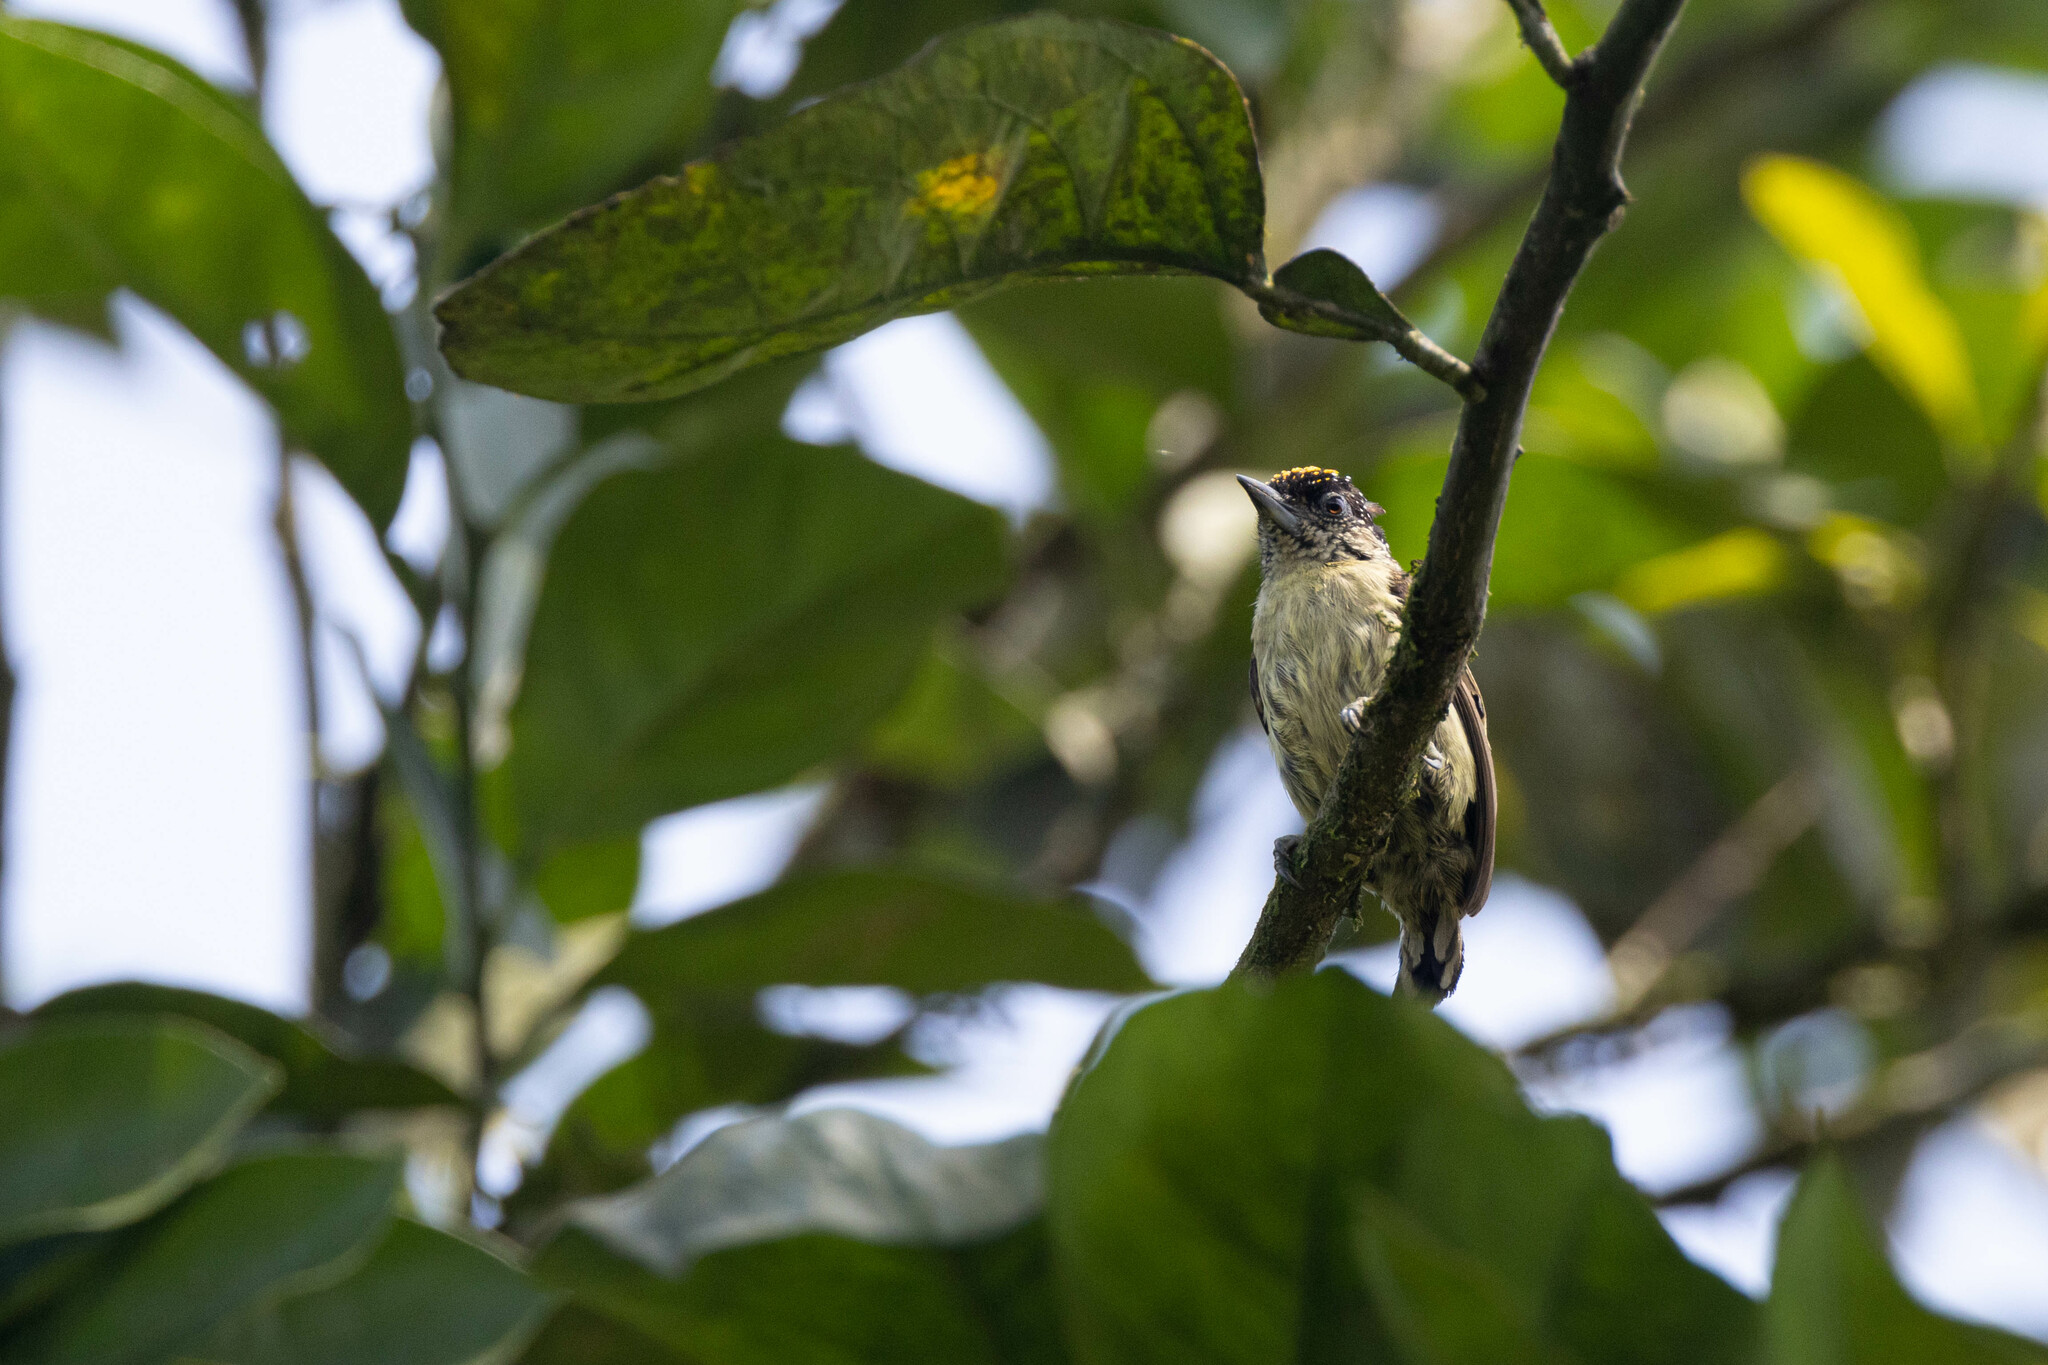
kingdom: Animalia
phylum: Chordata
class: Aves
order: Piciformes
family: Picidae
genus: Picumnus
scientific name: Picumnus olivaceus
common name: Olivaceous piculet
